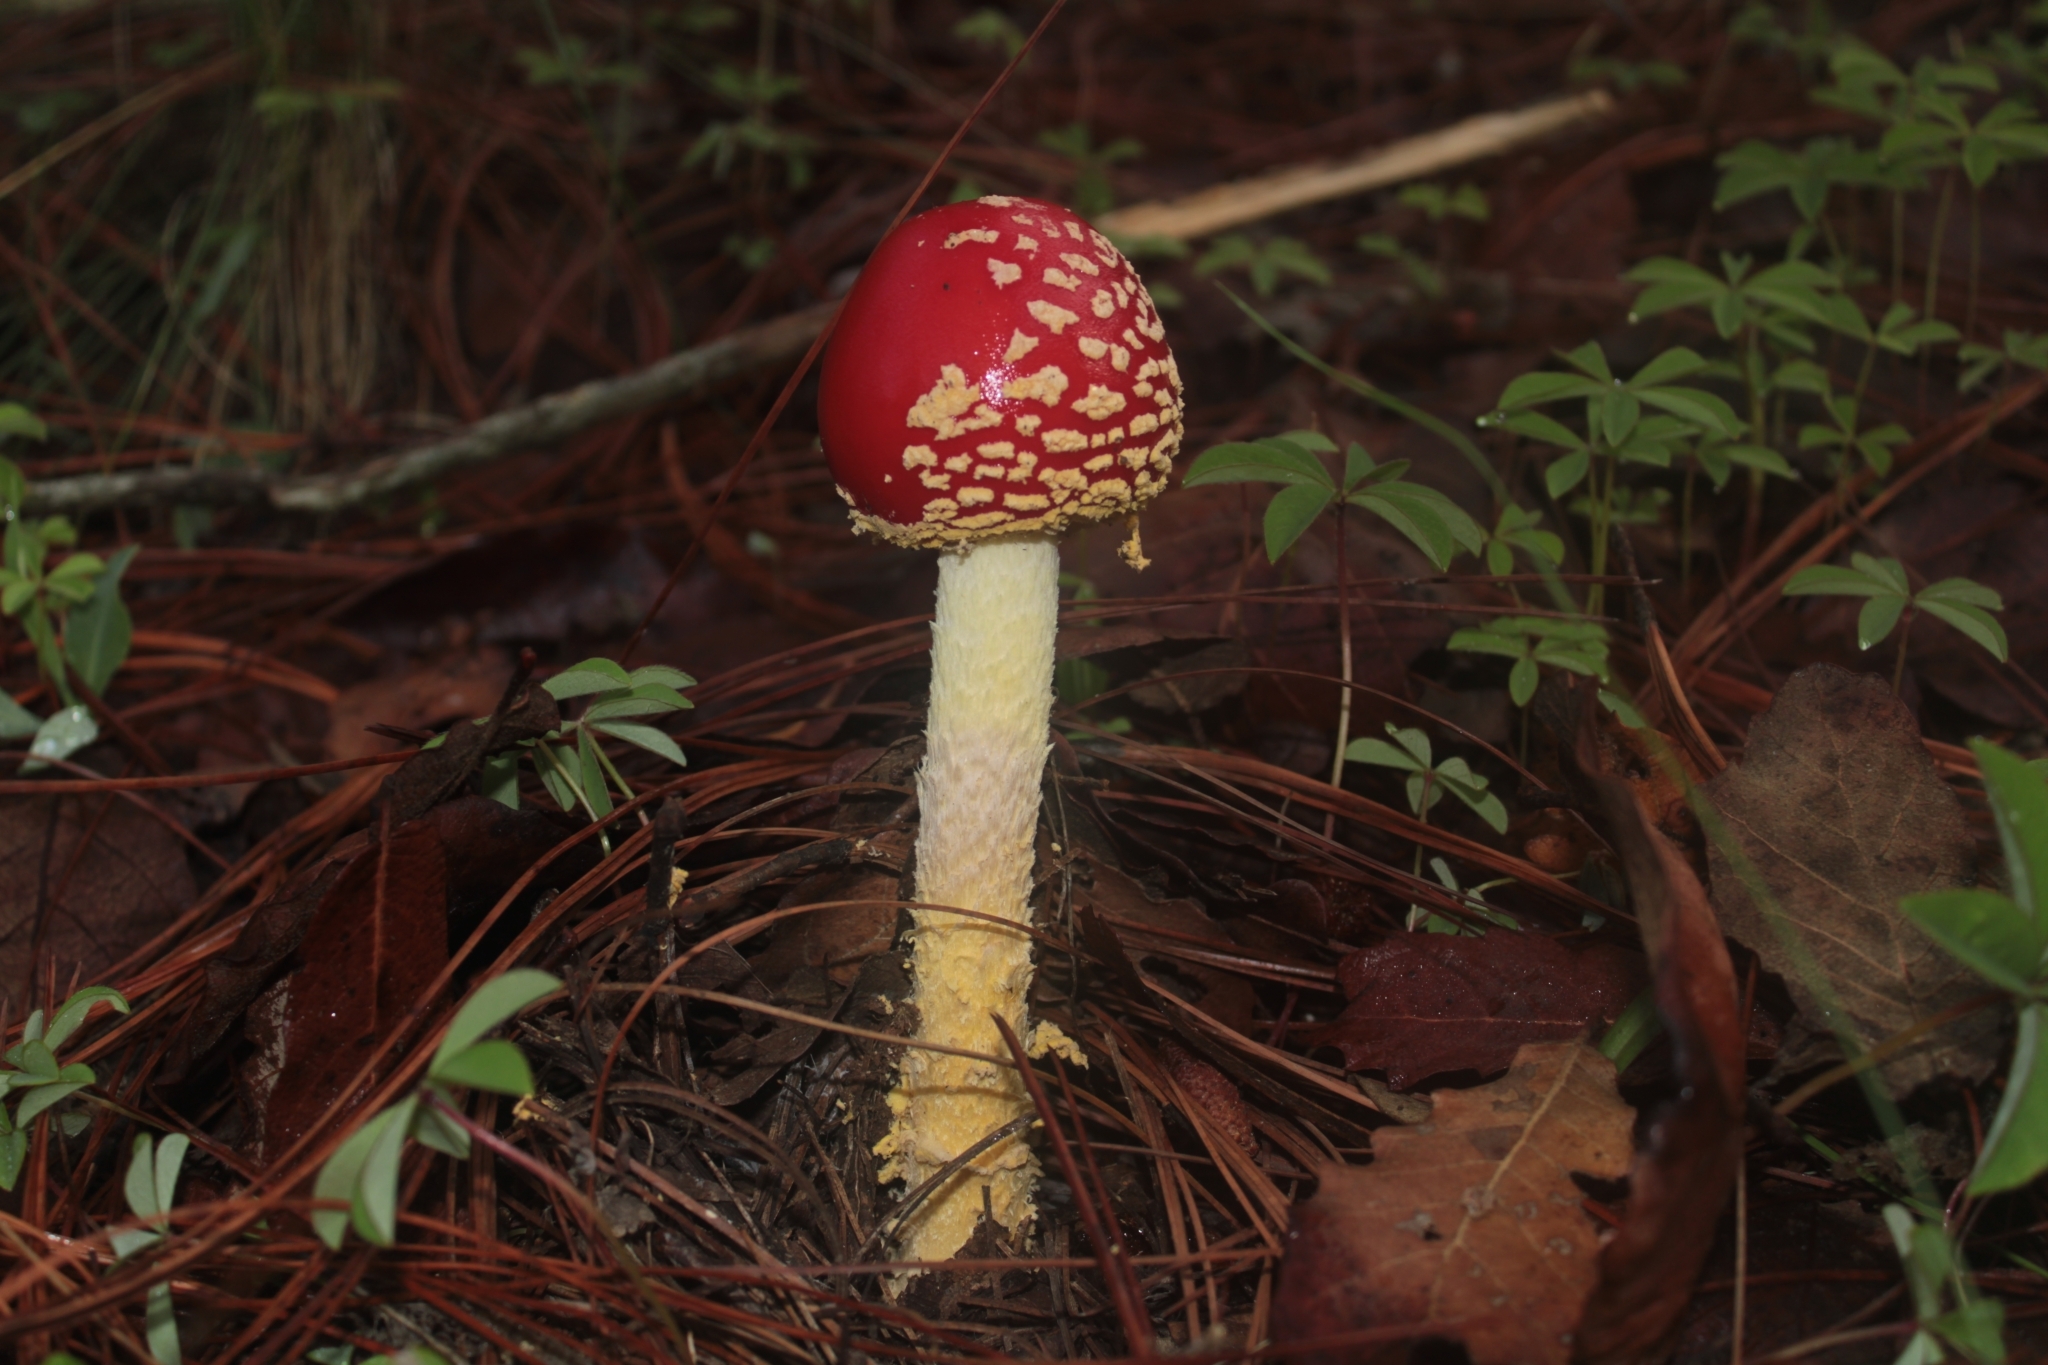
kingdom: Fungi
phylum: Basidiomycota
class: Agaricomycetes
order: Agaricales
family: Amanitaceae
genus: Amanita
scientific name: Amanita muscaria
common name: Fly agaric
